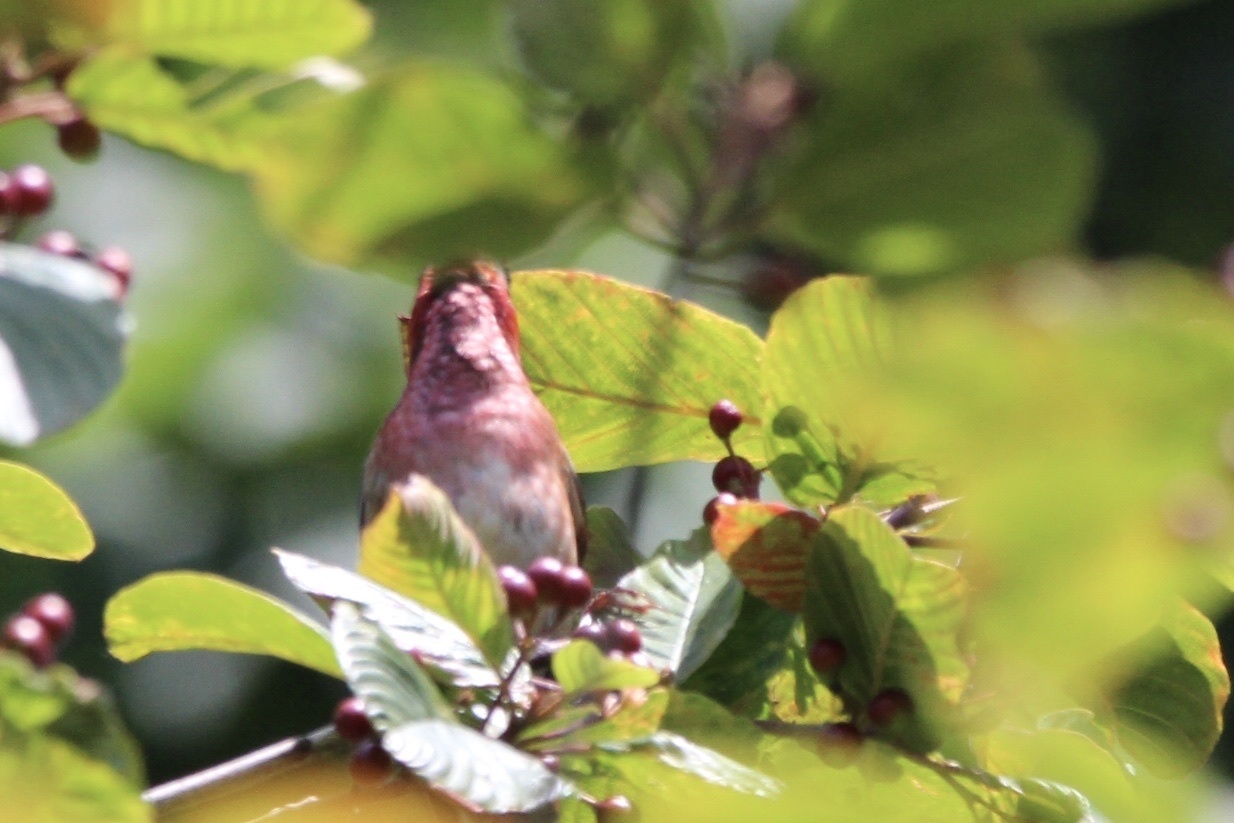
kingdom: Animalia
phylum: Chordata
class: Aves
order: Passeriformes
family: Fringillidae
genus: Haemorhous
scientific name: Haemorhous purpureus
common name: Purple finch
